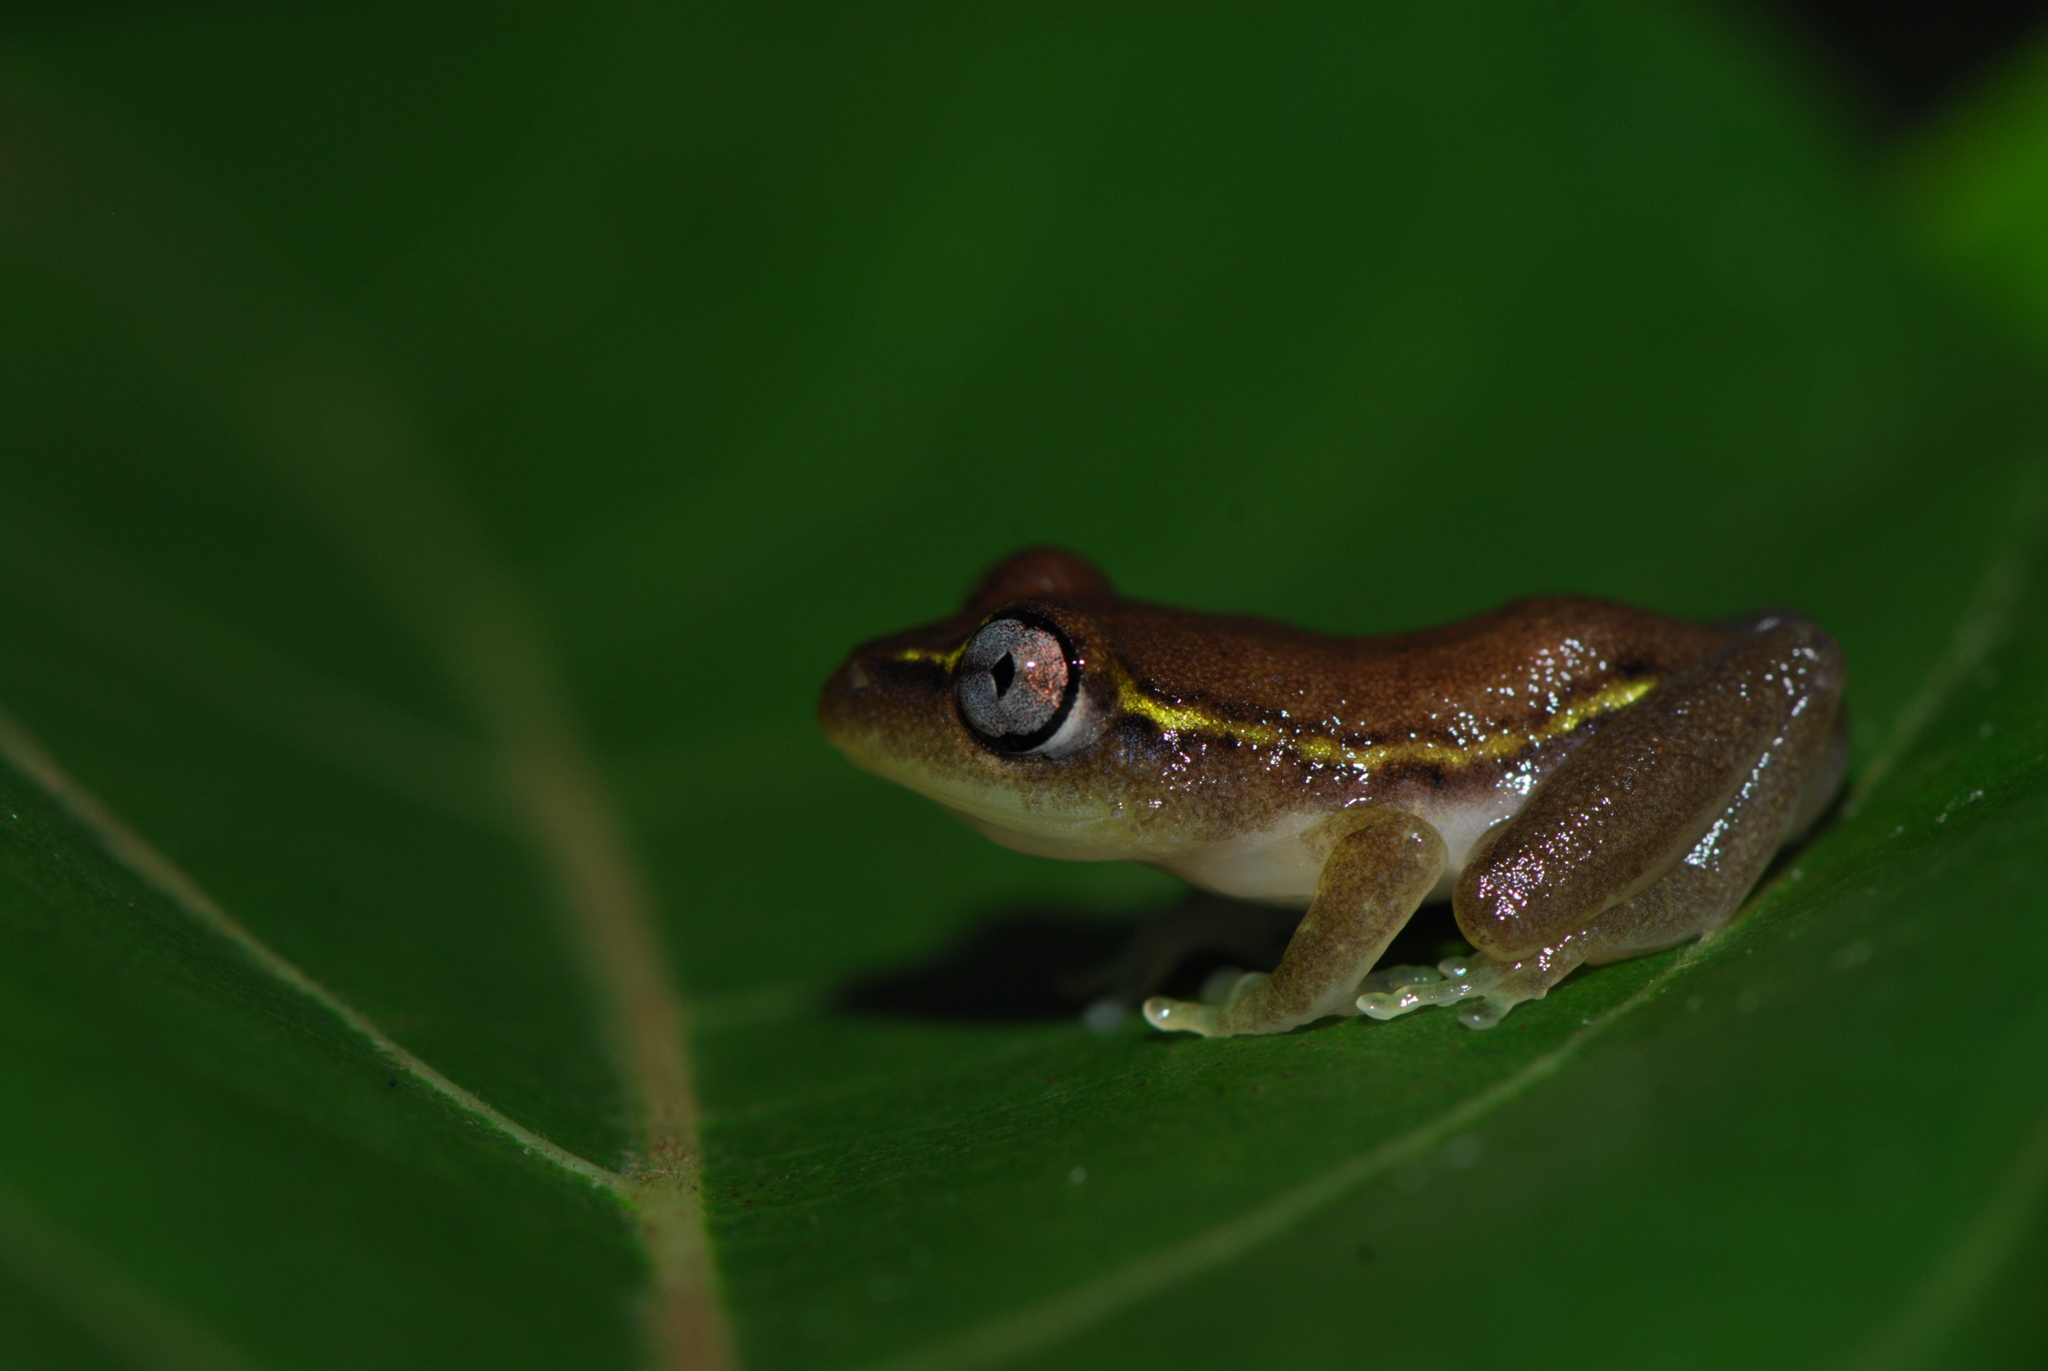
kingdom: Animalia
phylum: Chordata
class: Amphibia
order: Anura
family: Hyperoliidae
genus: Heterixalus
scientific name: Heterixalus madagascariensis
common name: Madagascar reed frog
